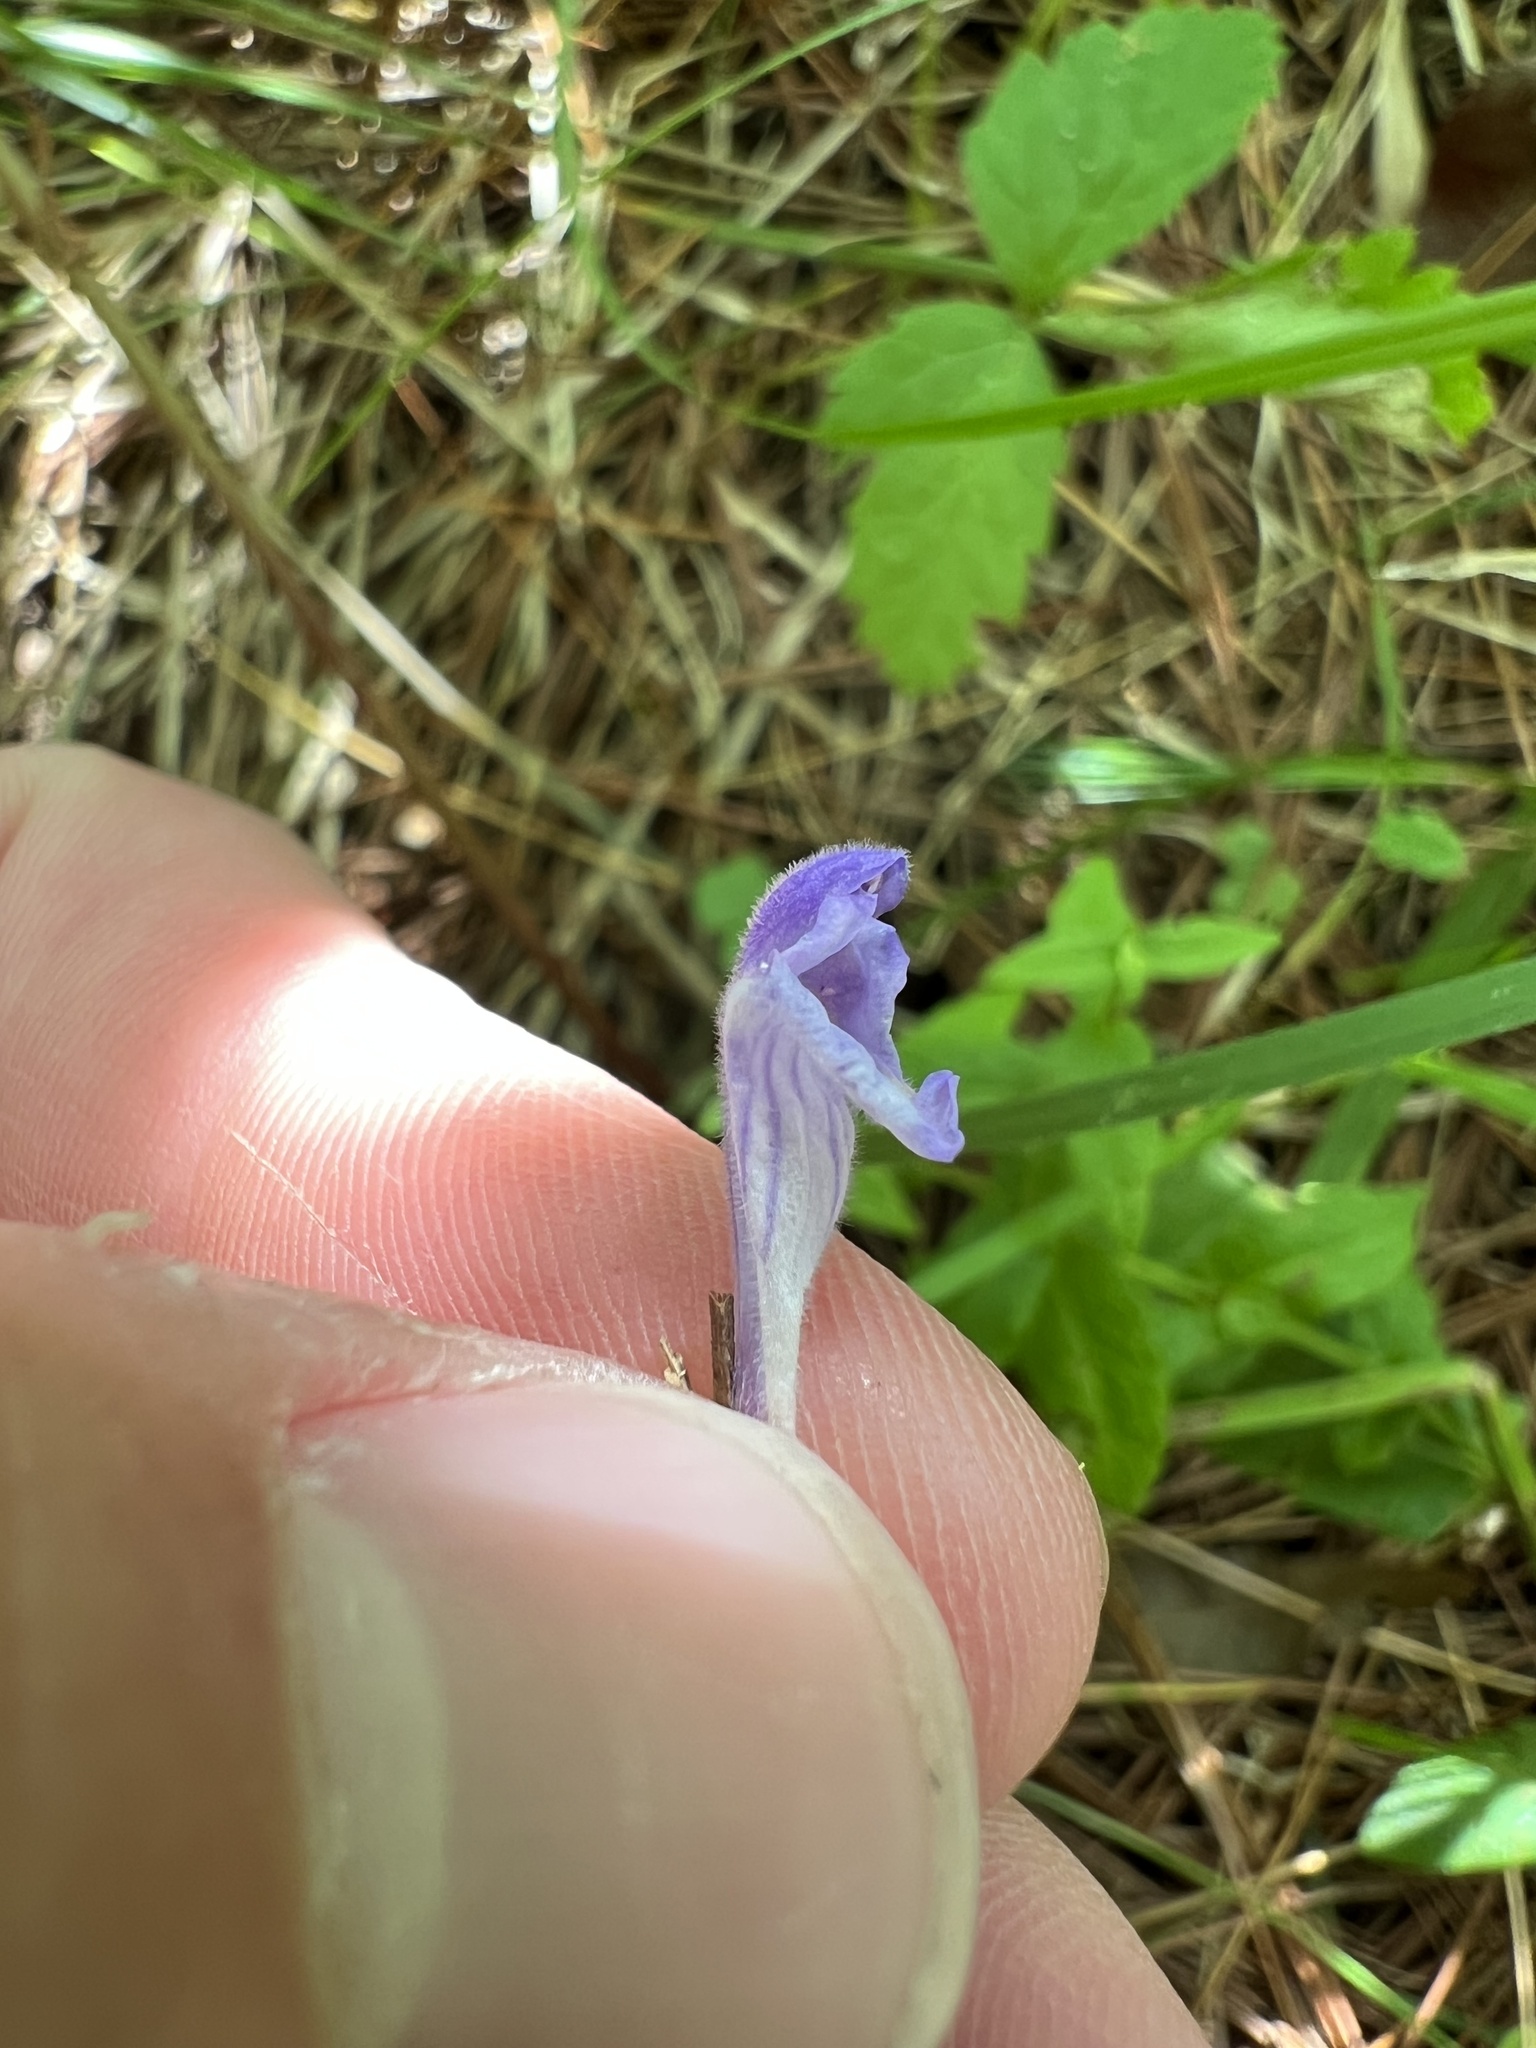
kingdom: Plantae
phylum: Tracheophyta
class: Magnoliopsida
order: Lamiales
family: Lamiaceae
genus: Scutellaria
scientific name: Scutellaria galericulata
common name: Skullcap
